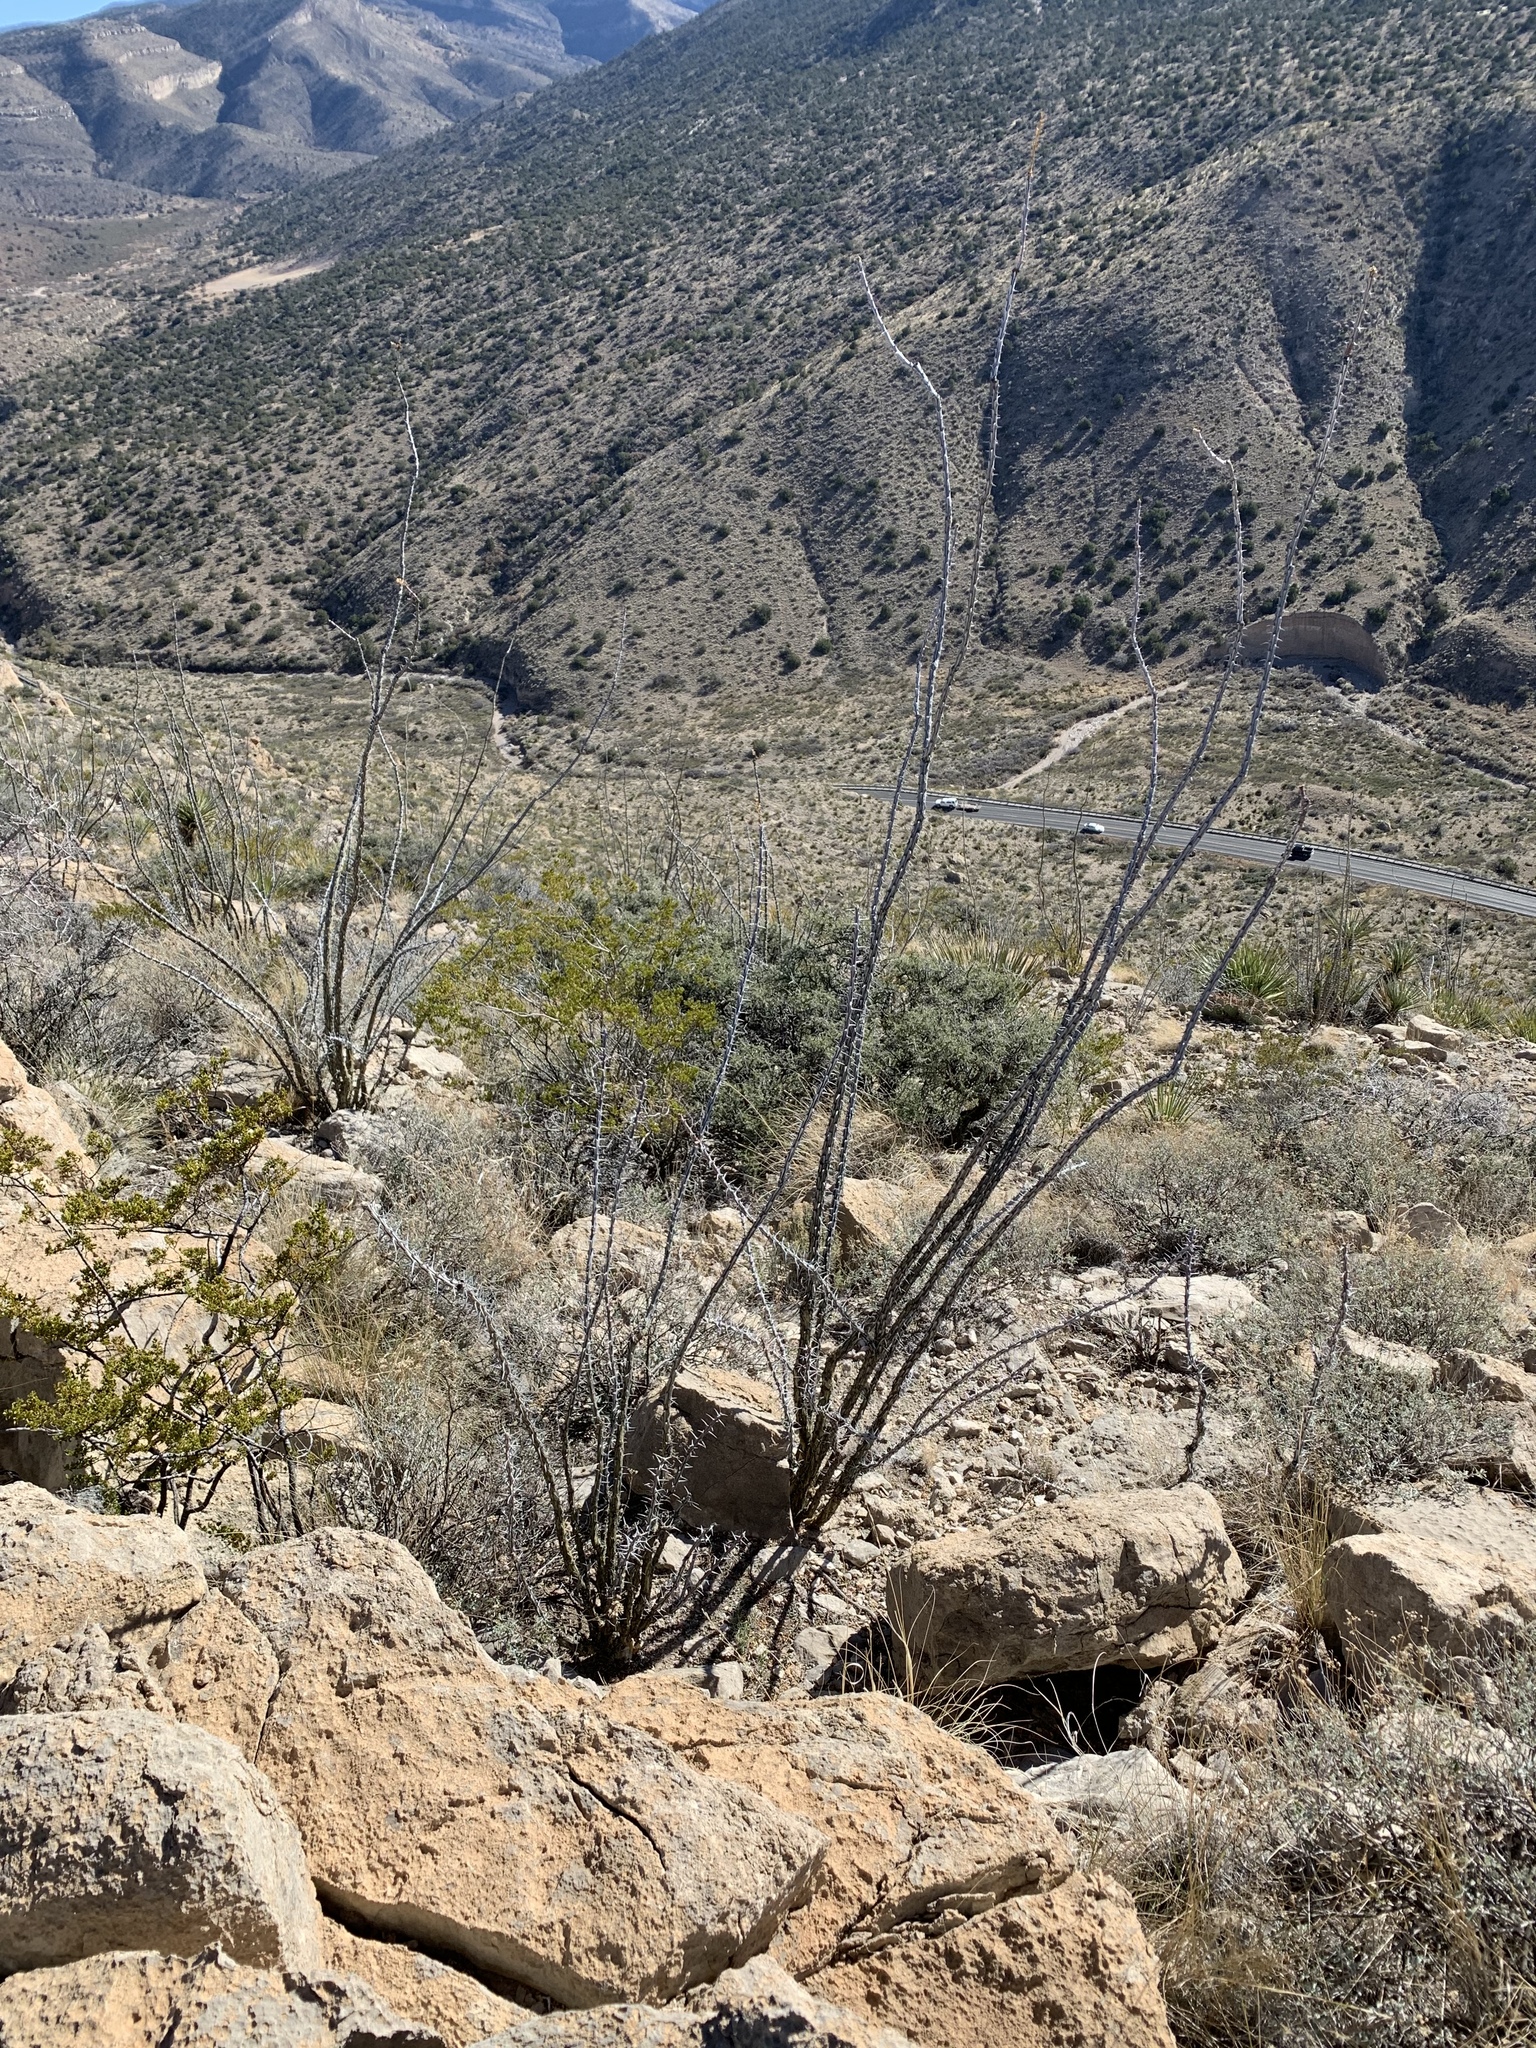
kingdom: Plantae
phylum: Tracheophyta
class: Magnoliopsida
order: Ericales
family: Fouquieriaceae
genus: Fouquieria
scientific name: Fouquieria splendens
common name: Vine-cactus
